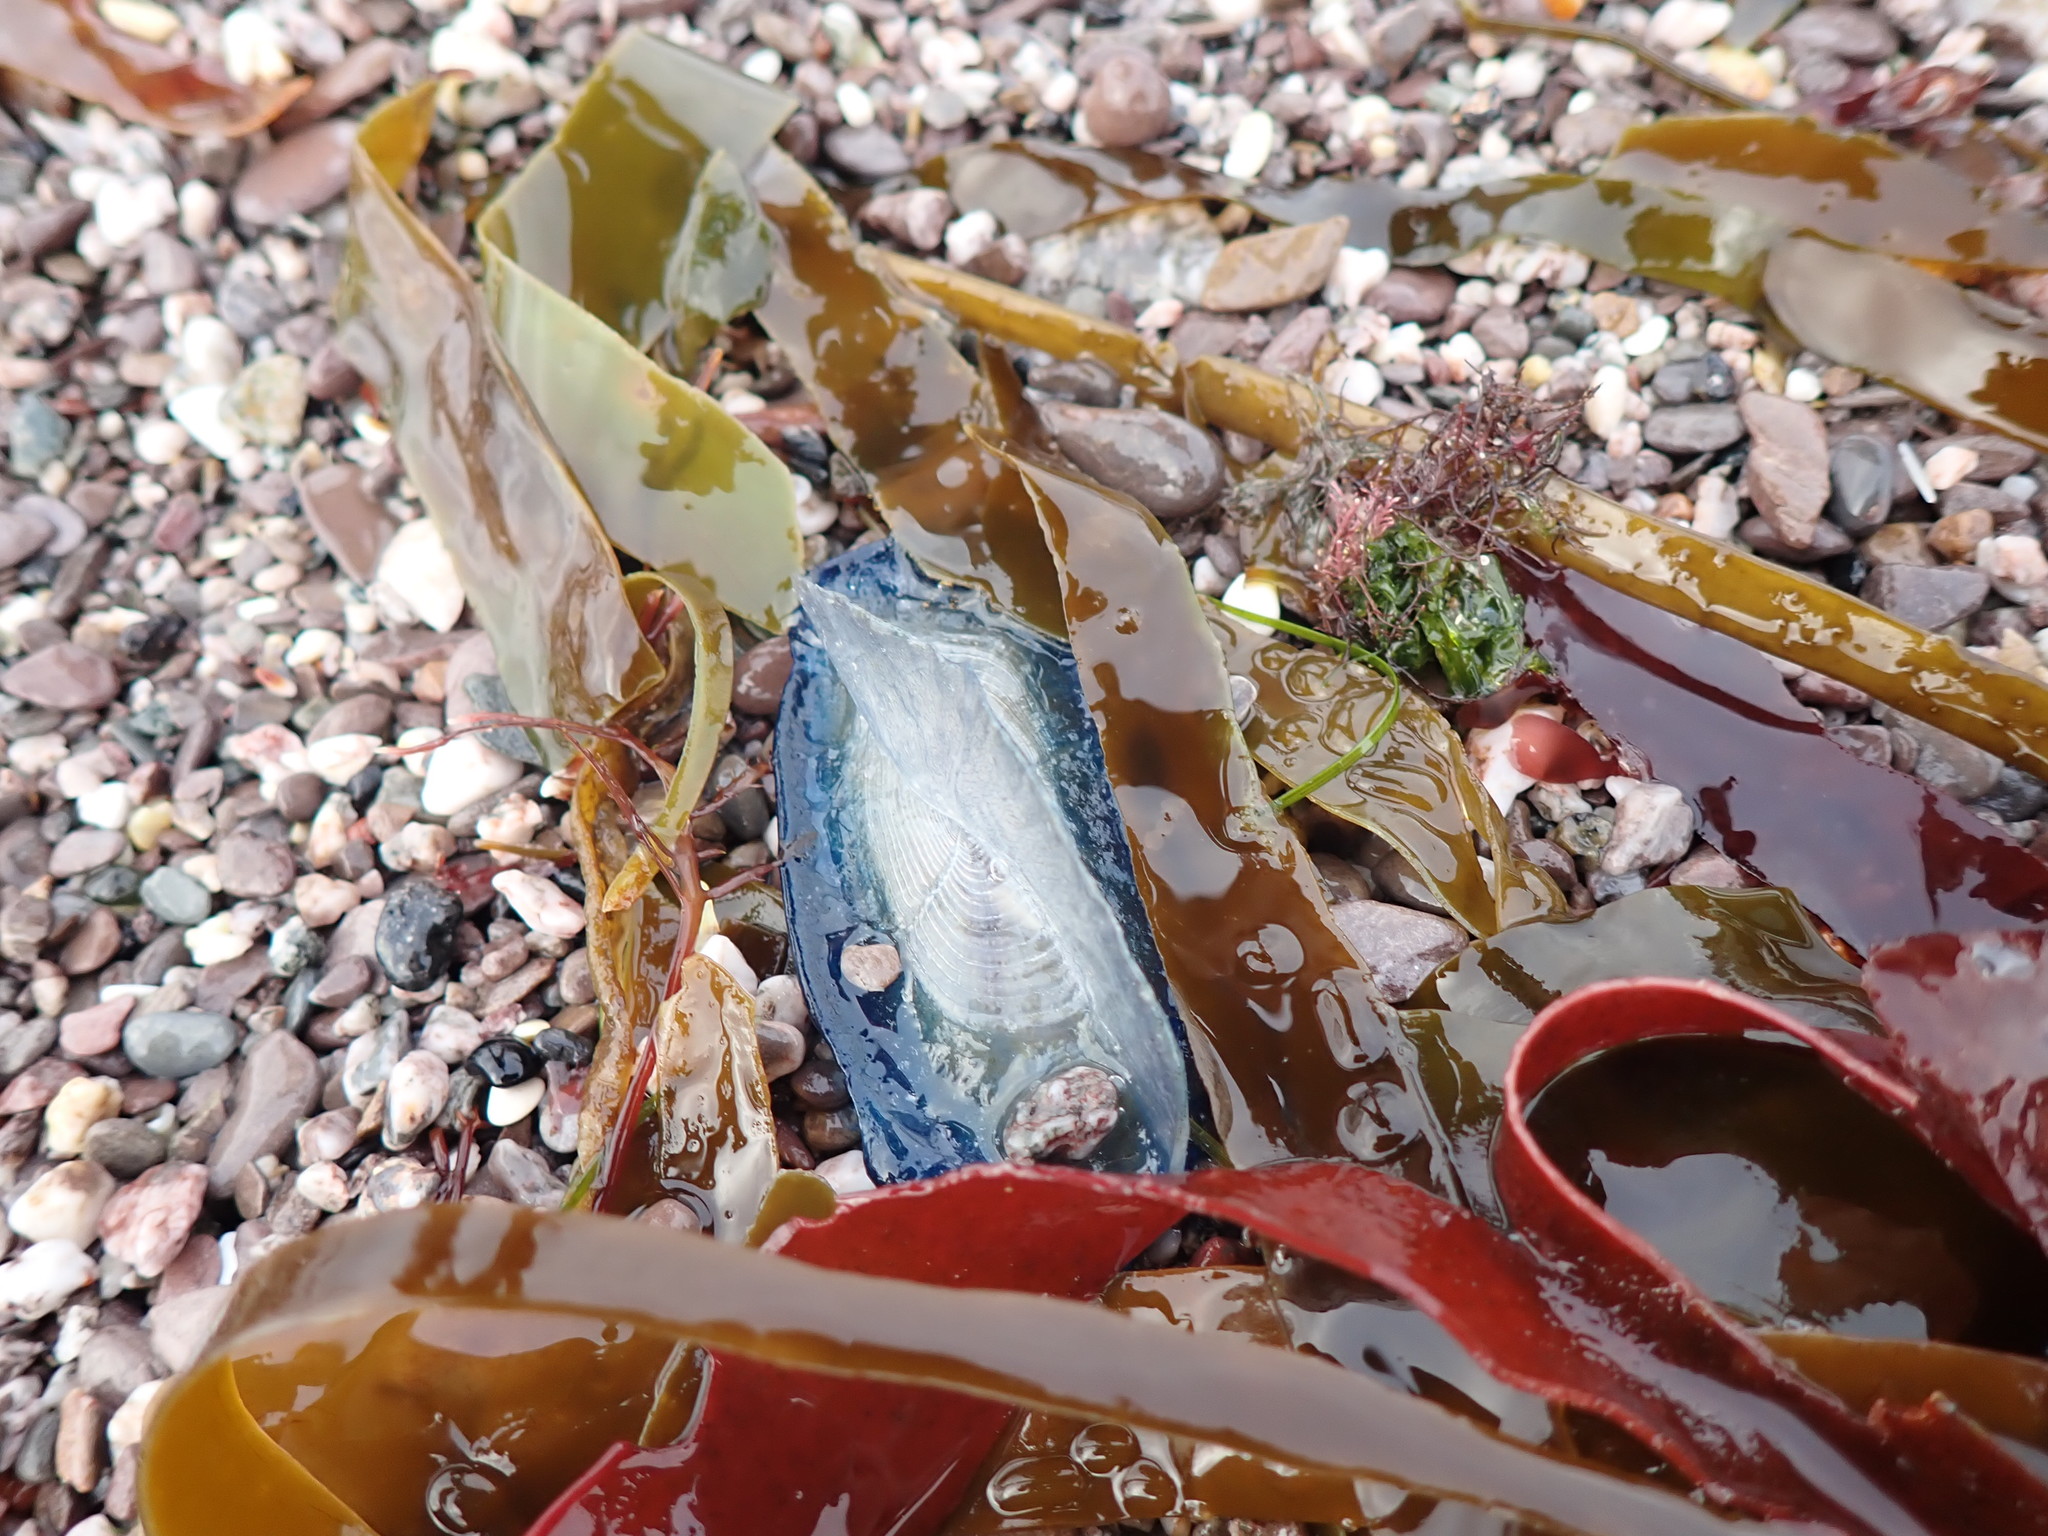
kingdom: Animalia
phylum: Cnidaria
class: Hydrozoa
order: Anthoathecata
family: Porpitidae
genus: Velella
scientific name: Velella velella
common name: By-the-wind-sailor
